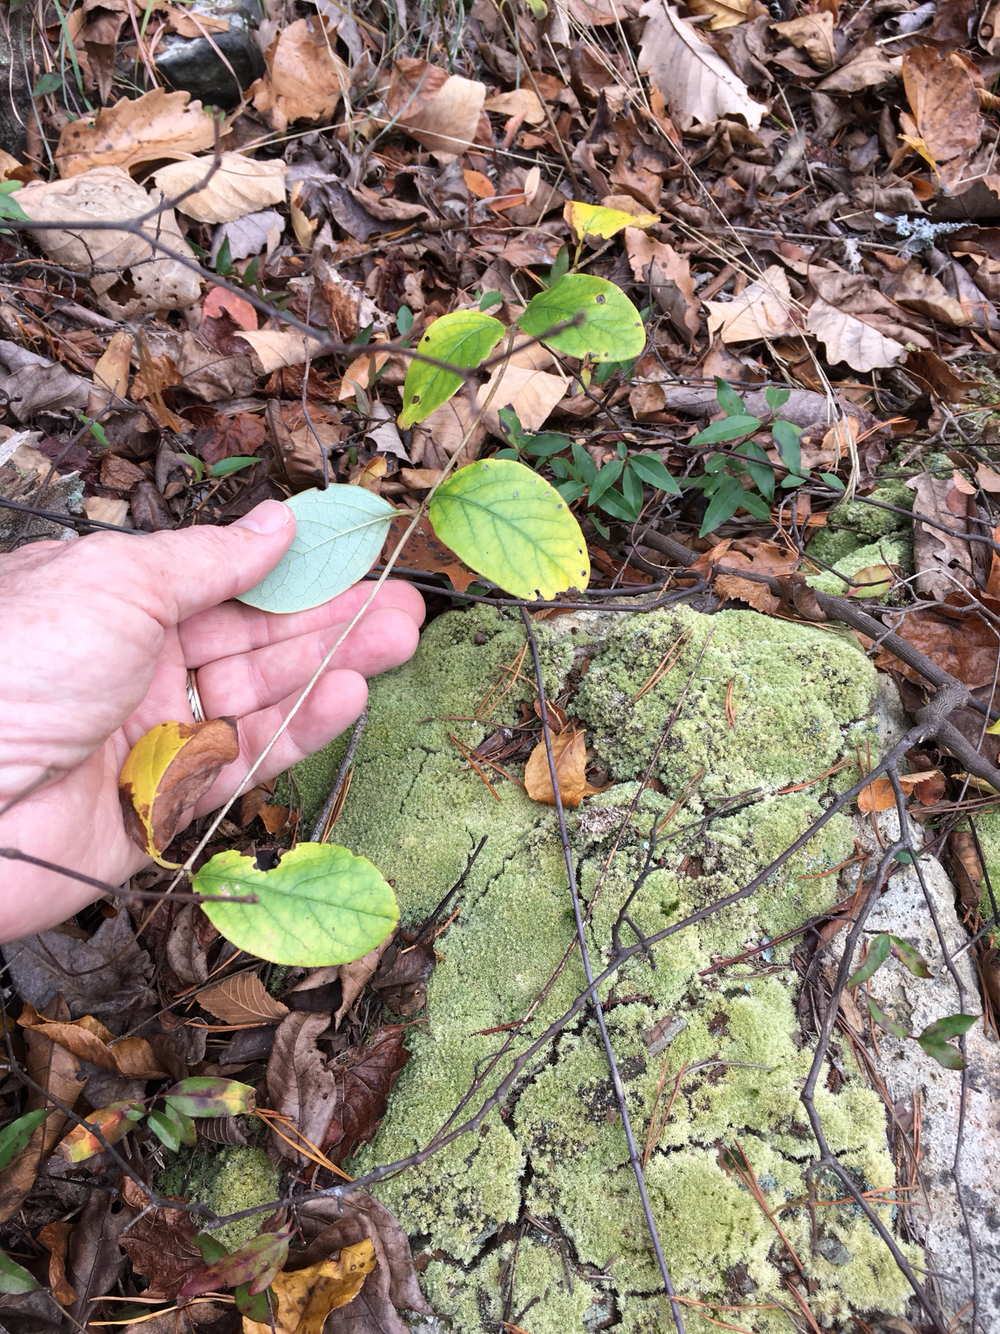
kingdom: Plantae
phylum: Tracheophyta
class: Magnoliopsida
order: Dipsacales
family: Caprifoliaceae
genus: Lonicera
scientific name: Lonicera sempervirens
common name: Coral honeysuckle
